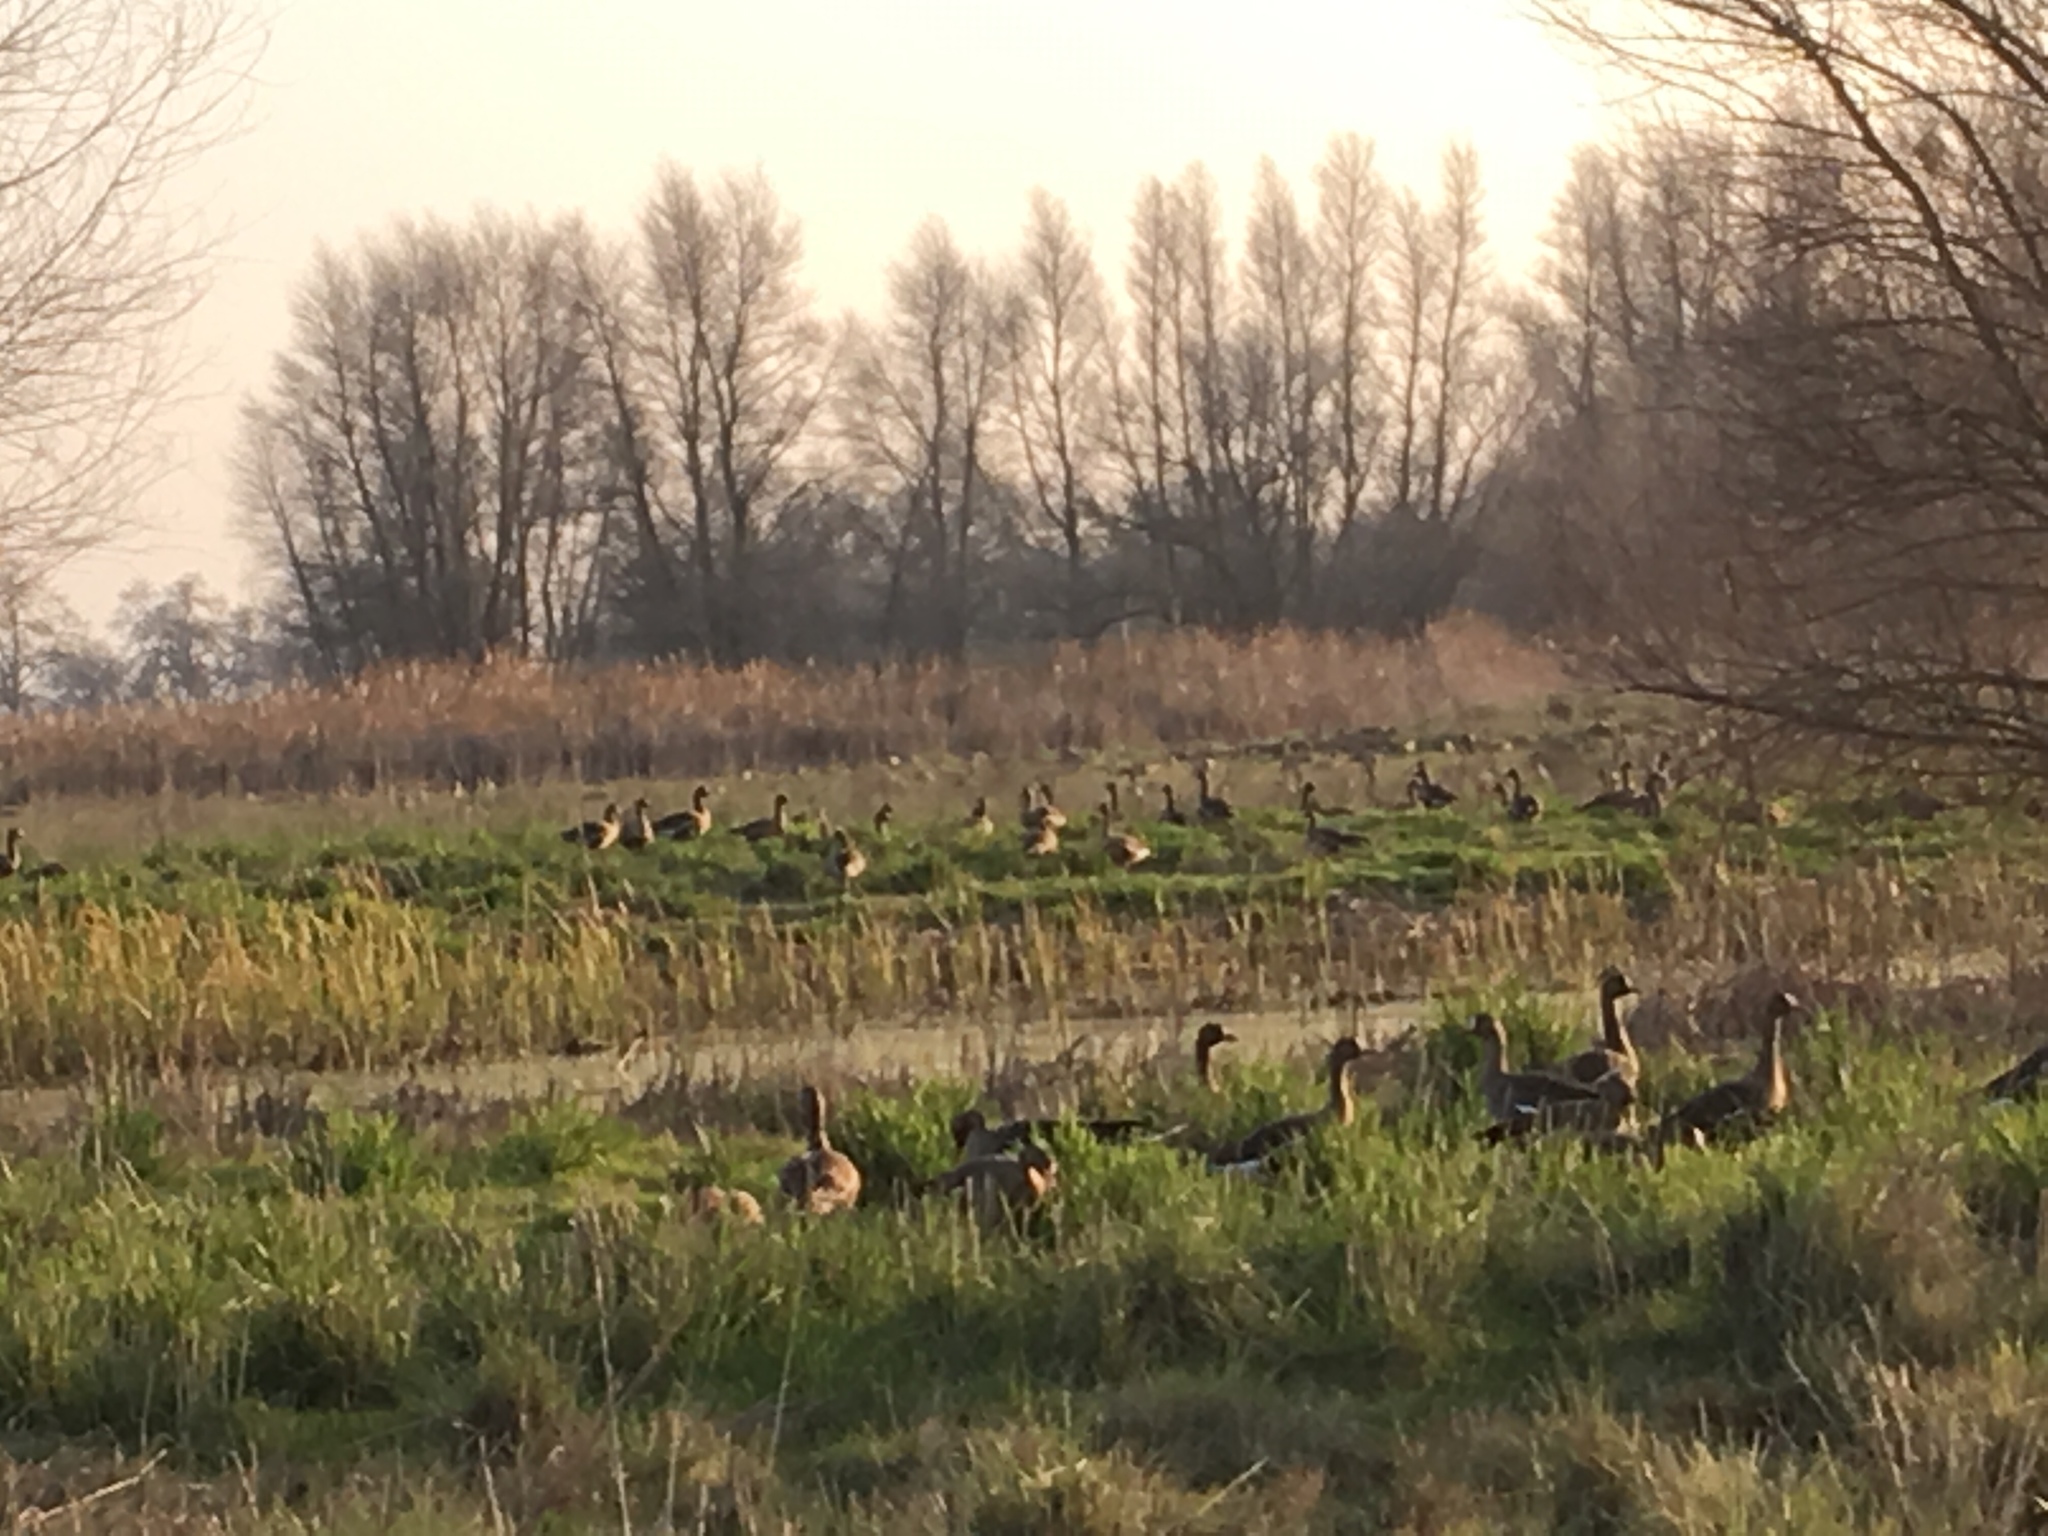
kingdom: Animalia
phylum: Chordata
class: Aves
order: Anseriformes
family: Anatidae
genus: Anser
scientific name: Anser albifrons
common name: Greater white-fronted goose
